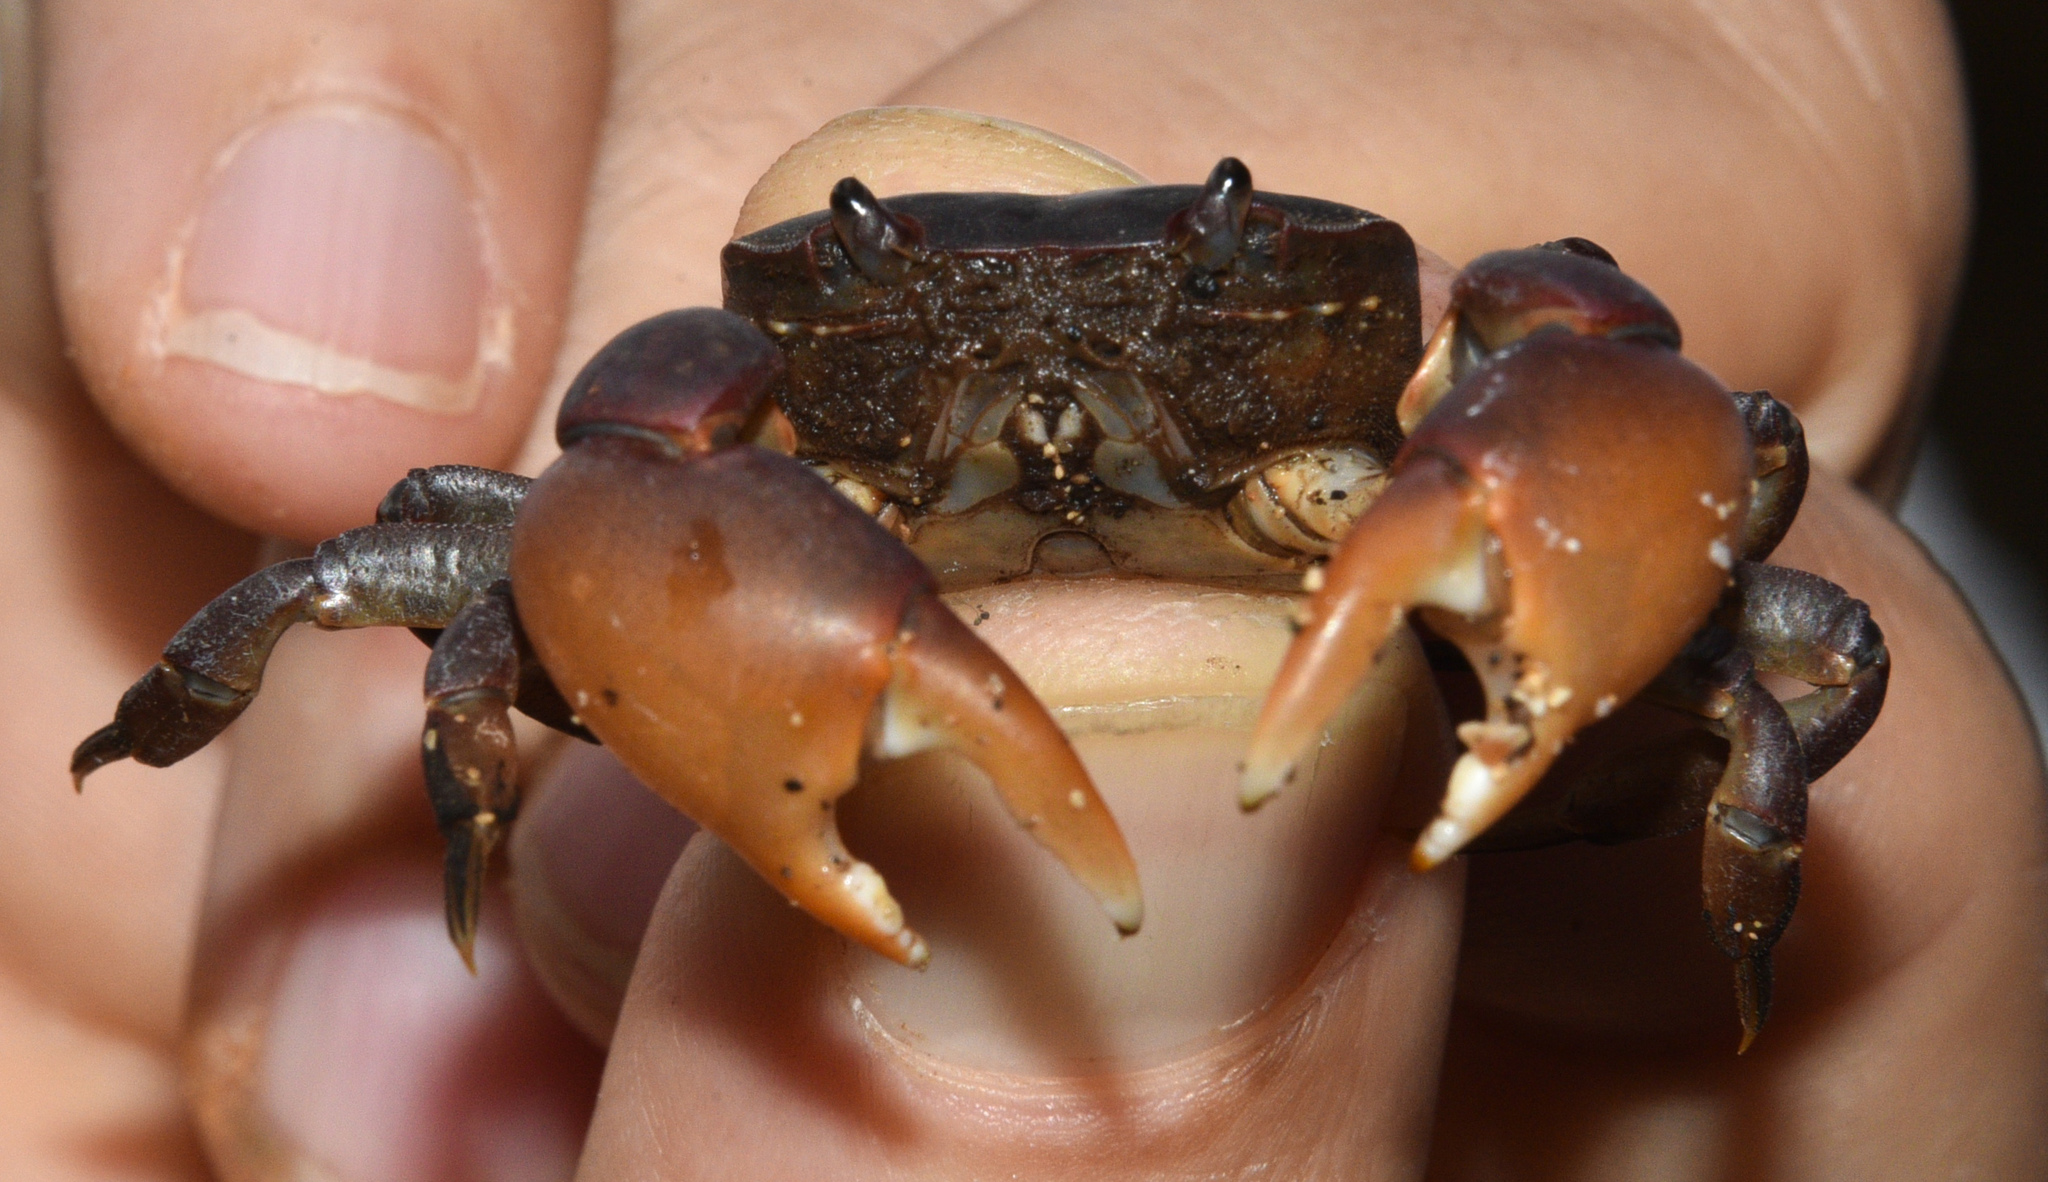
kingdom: Animalia
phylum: Arthropoda
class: Malacostraca
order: Decapoda
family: Varunidae
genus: Cyclograpsus
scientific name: Cyclograpsus henshawi
